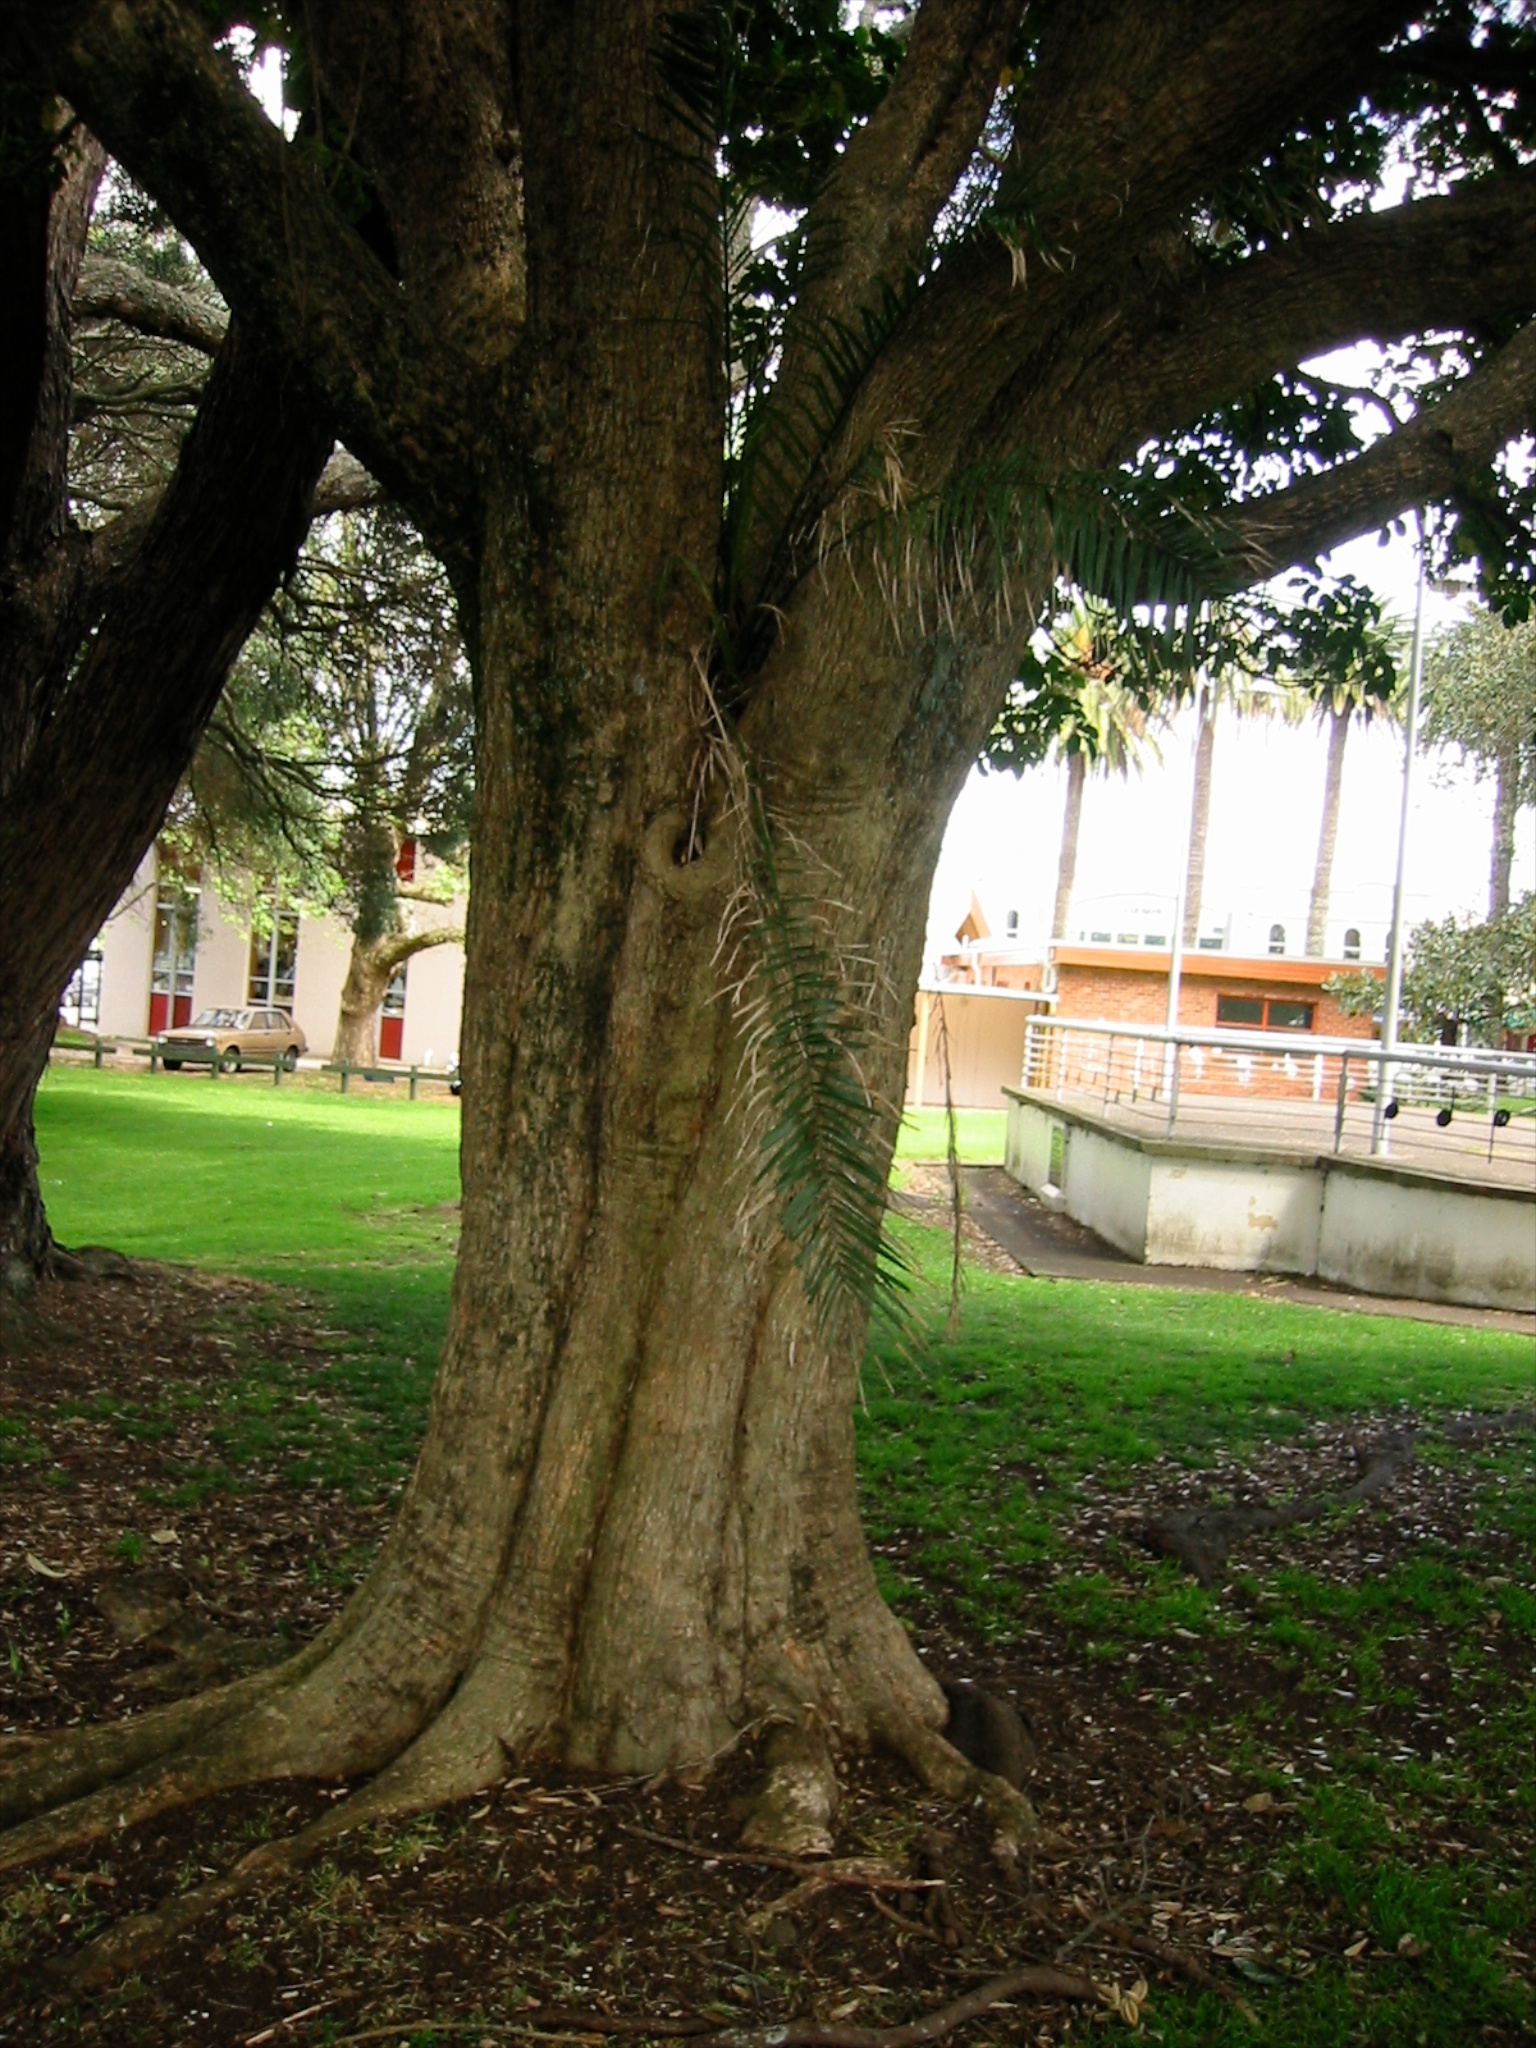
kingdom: Plantae
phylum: Tracheophyta
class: Liliopsida
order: Arecales
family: Arecaceae
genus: Phoenix
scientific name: Phoenix canariensis
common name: Canary island date palm
